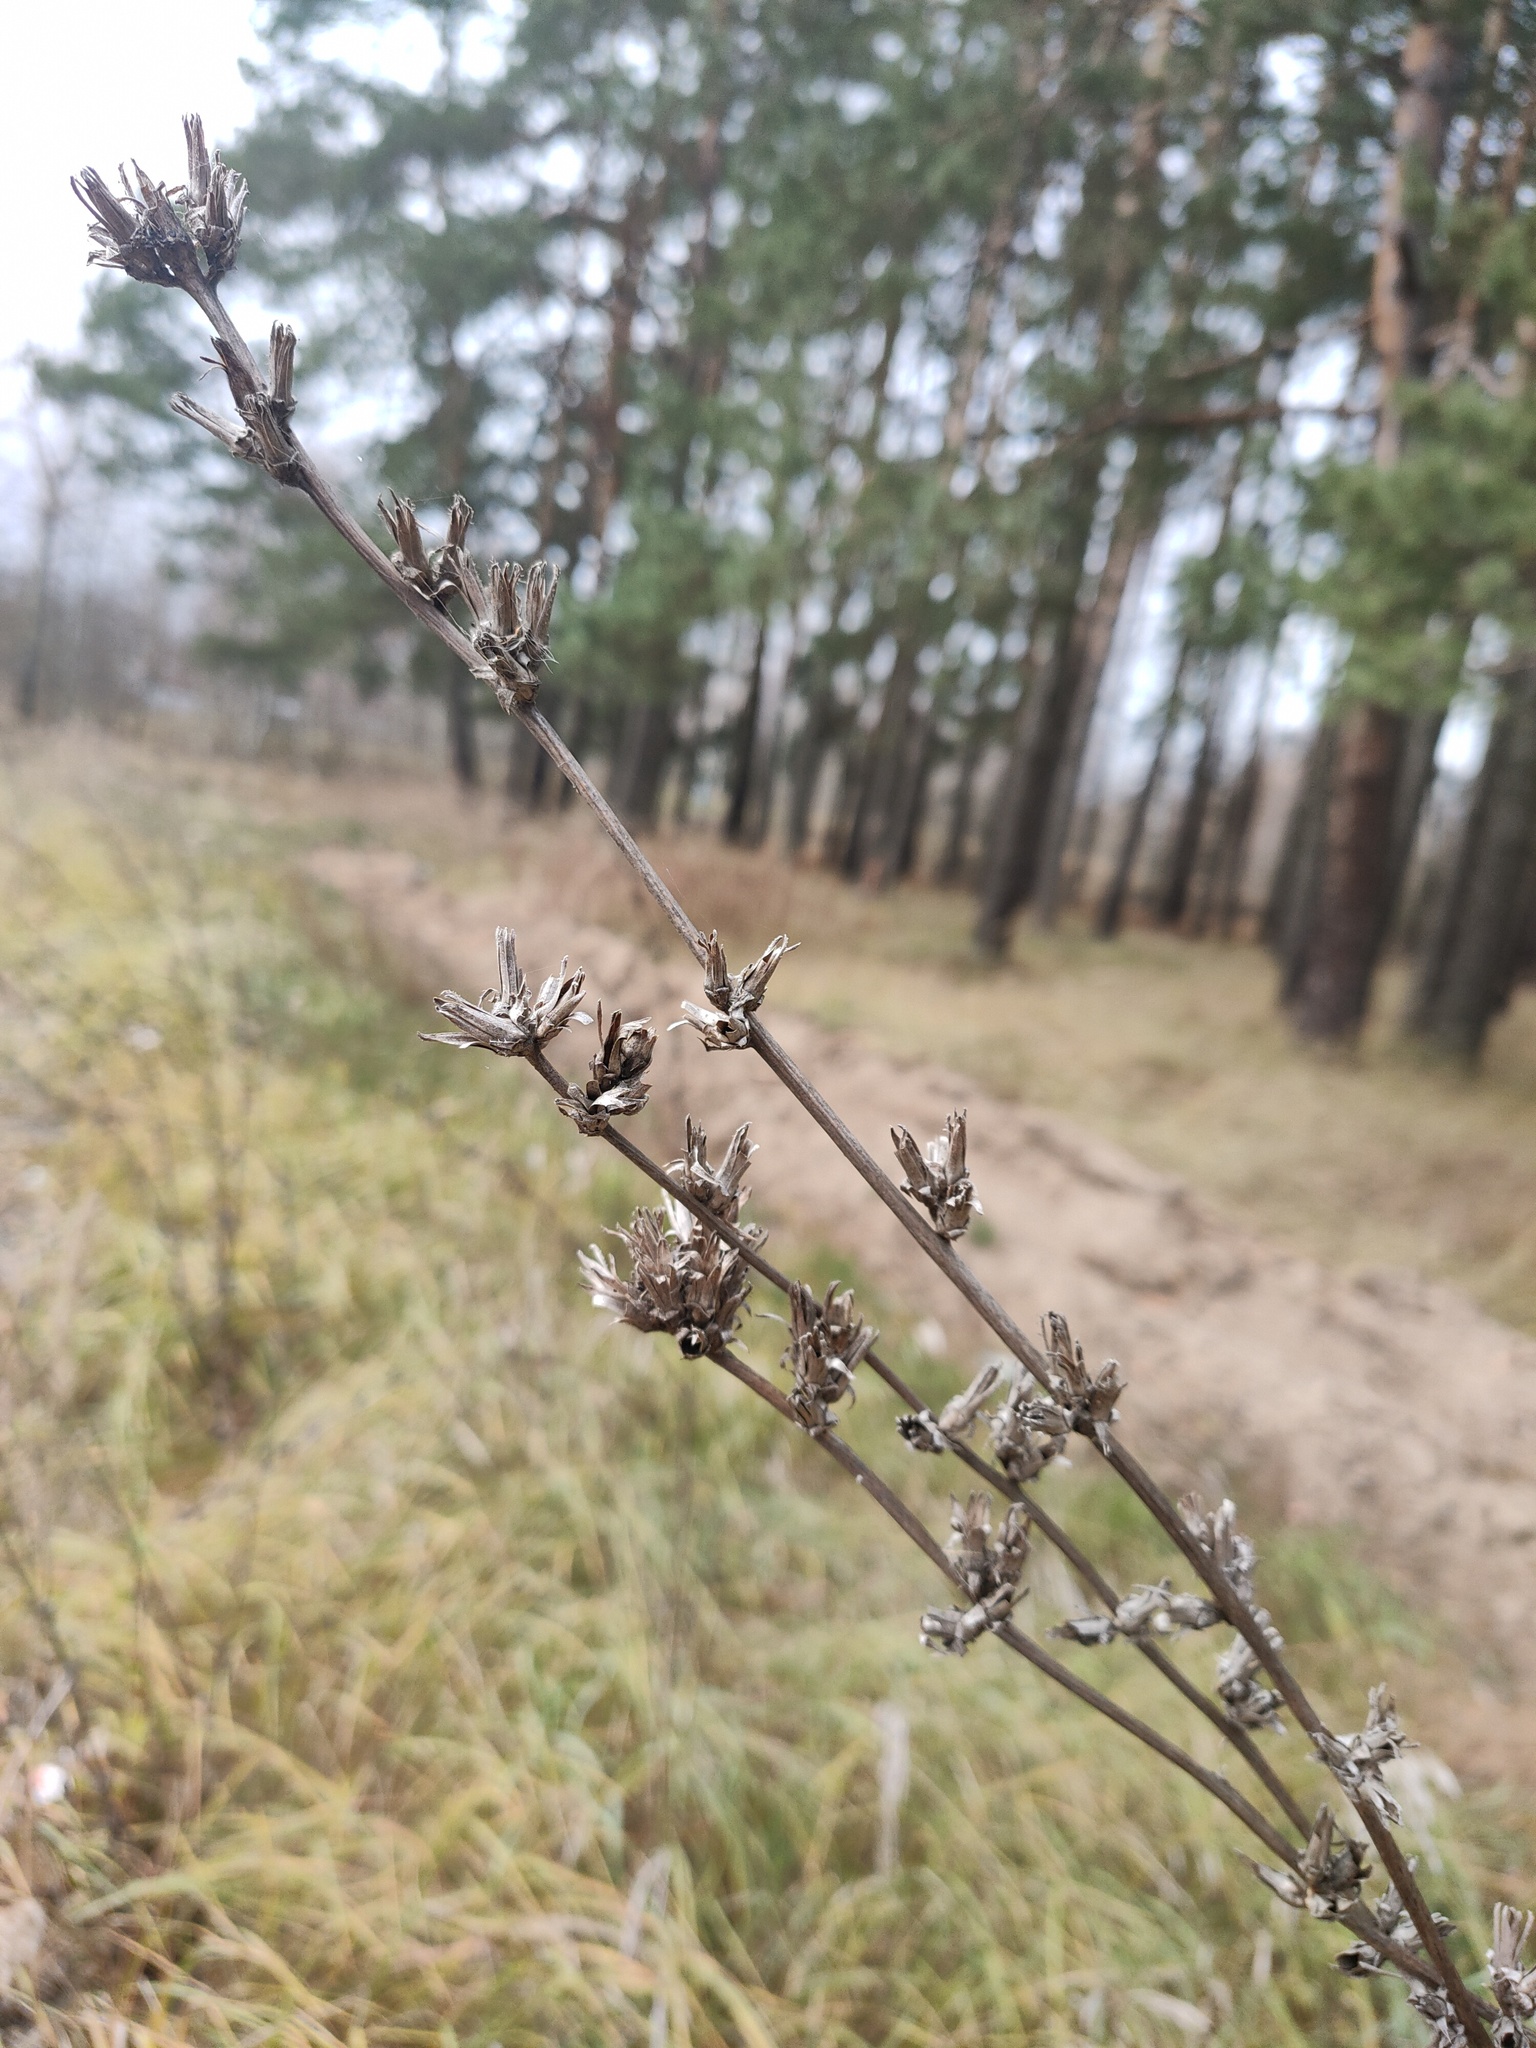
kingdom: Plantae
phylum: Tracheophyta
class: Magnoliopsida
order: Asterales
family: Asteraceae
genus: Cichorium
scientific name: Cichorium intybus
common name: Chicory
